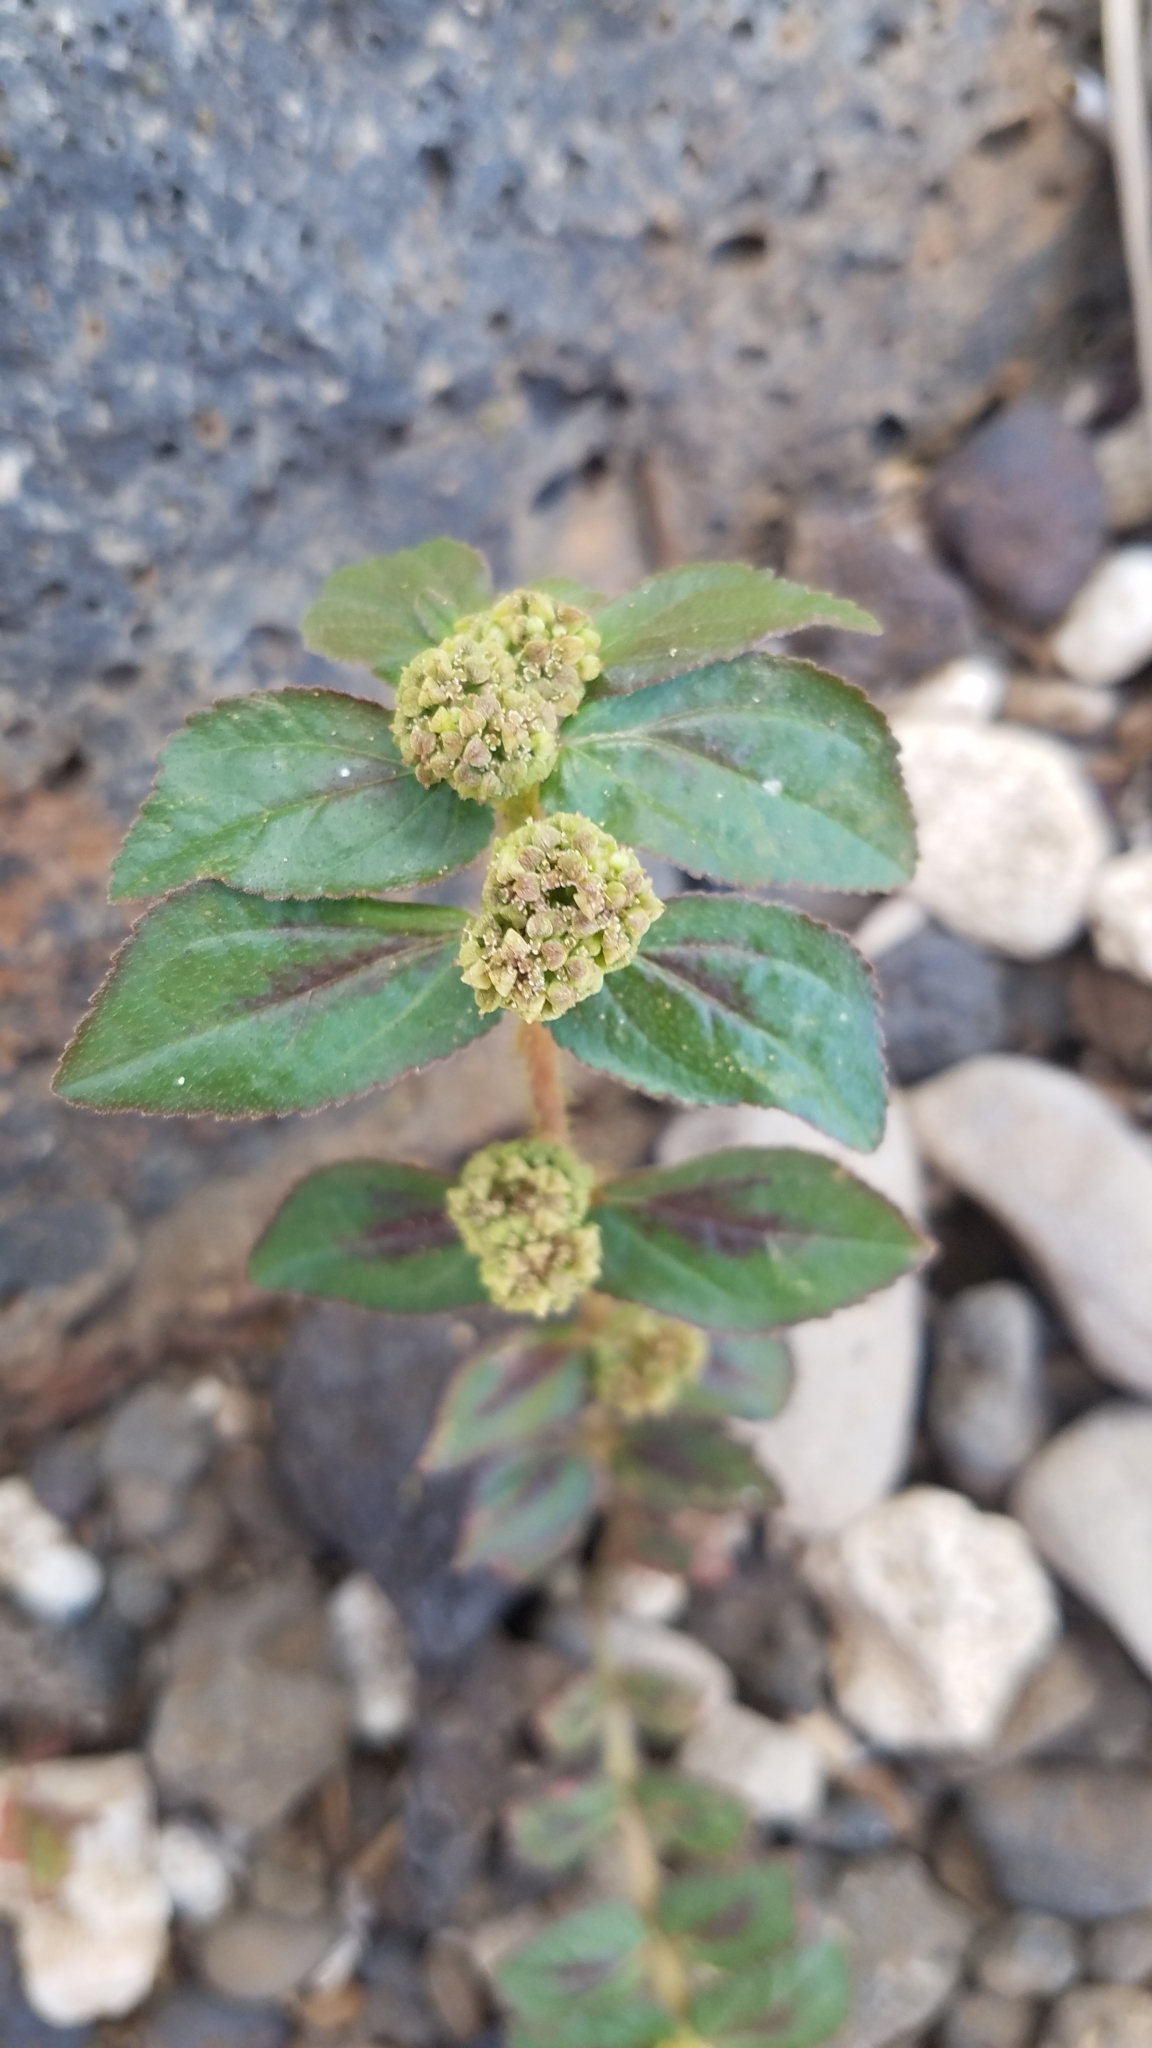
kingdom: Plantae
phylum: Tracheophyta
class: Magnoliopsida
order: Malpighiales
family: Euphorbiaceae
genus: Euphorbia
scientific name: Euphorbia hirta
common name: Pillpod sandmat
